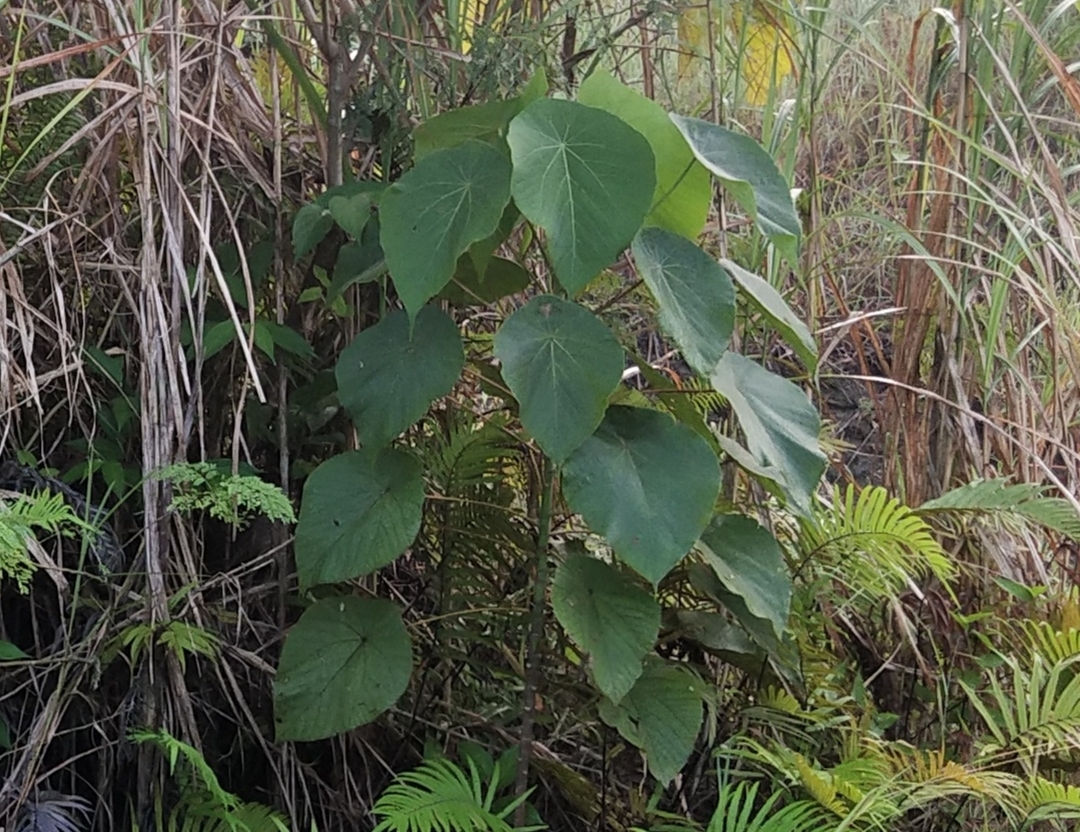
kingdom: Plantae
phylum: Tracheophyta
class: Magnoliopsida
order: Malpighiales
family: Euphorbiaceae
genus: Macaranga
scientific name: Macaranga tanarius
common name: Parasol leaf tree
